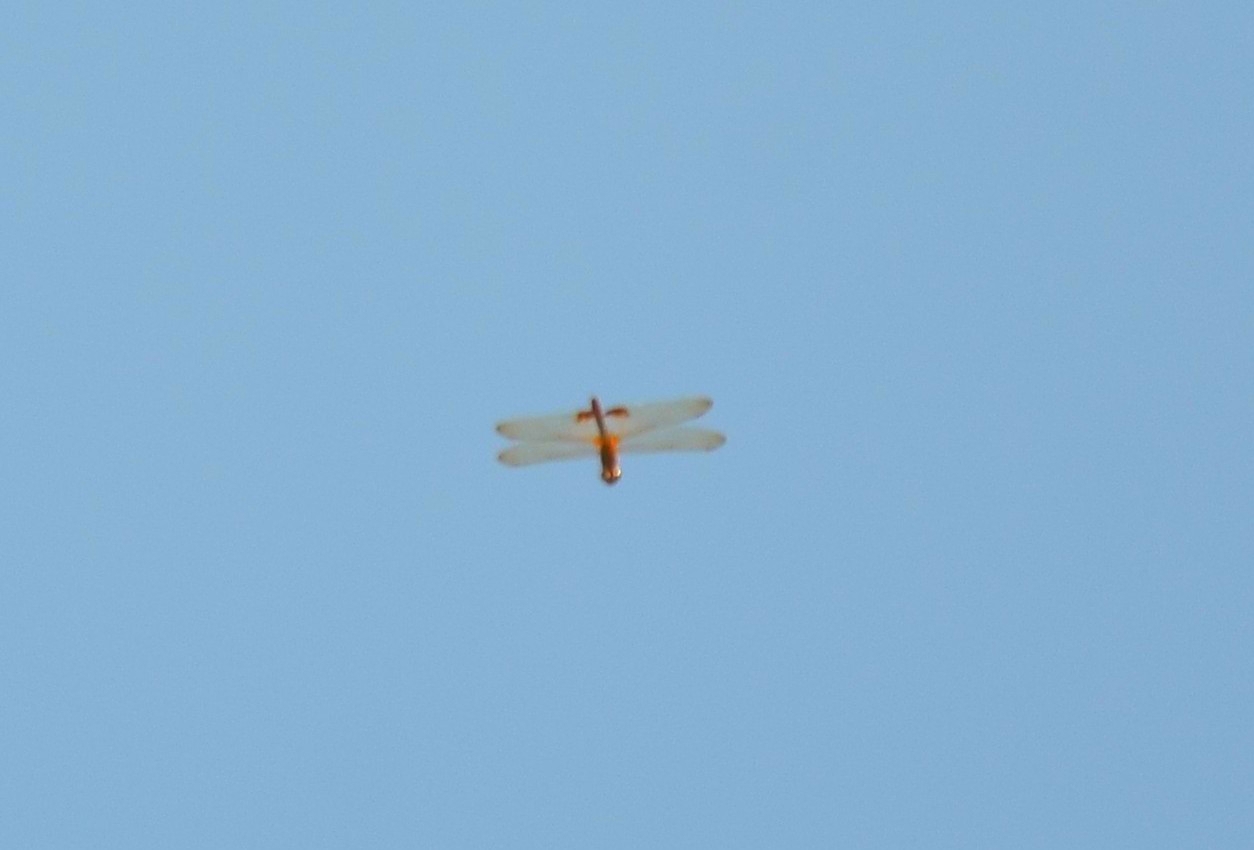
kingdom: Animalia
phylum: Arthropoda
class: Insecta
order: Odonata
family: Libellulidae
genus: Hydrobasileus
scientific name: Hydrobasileus croceus
